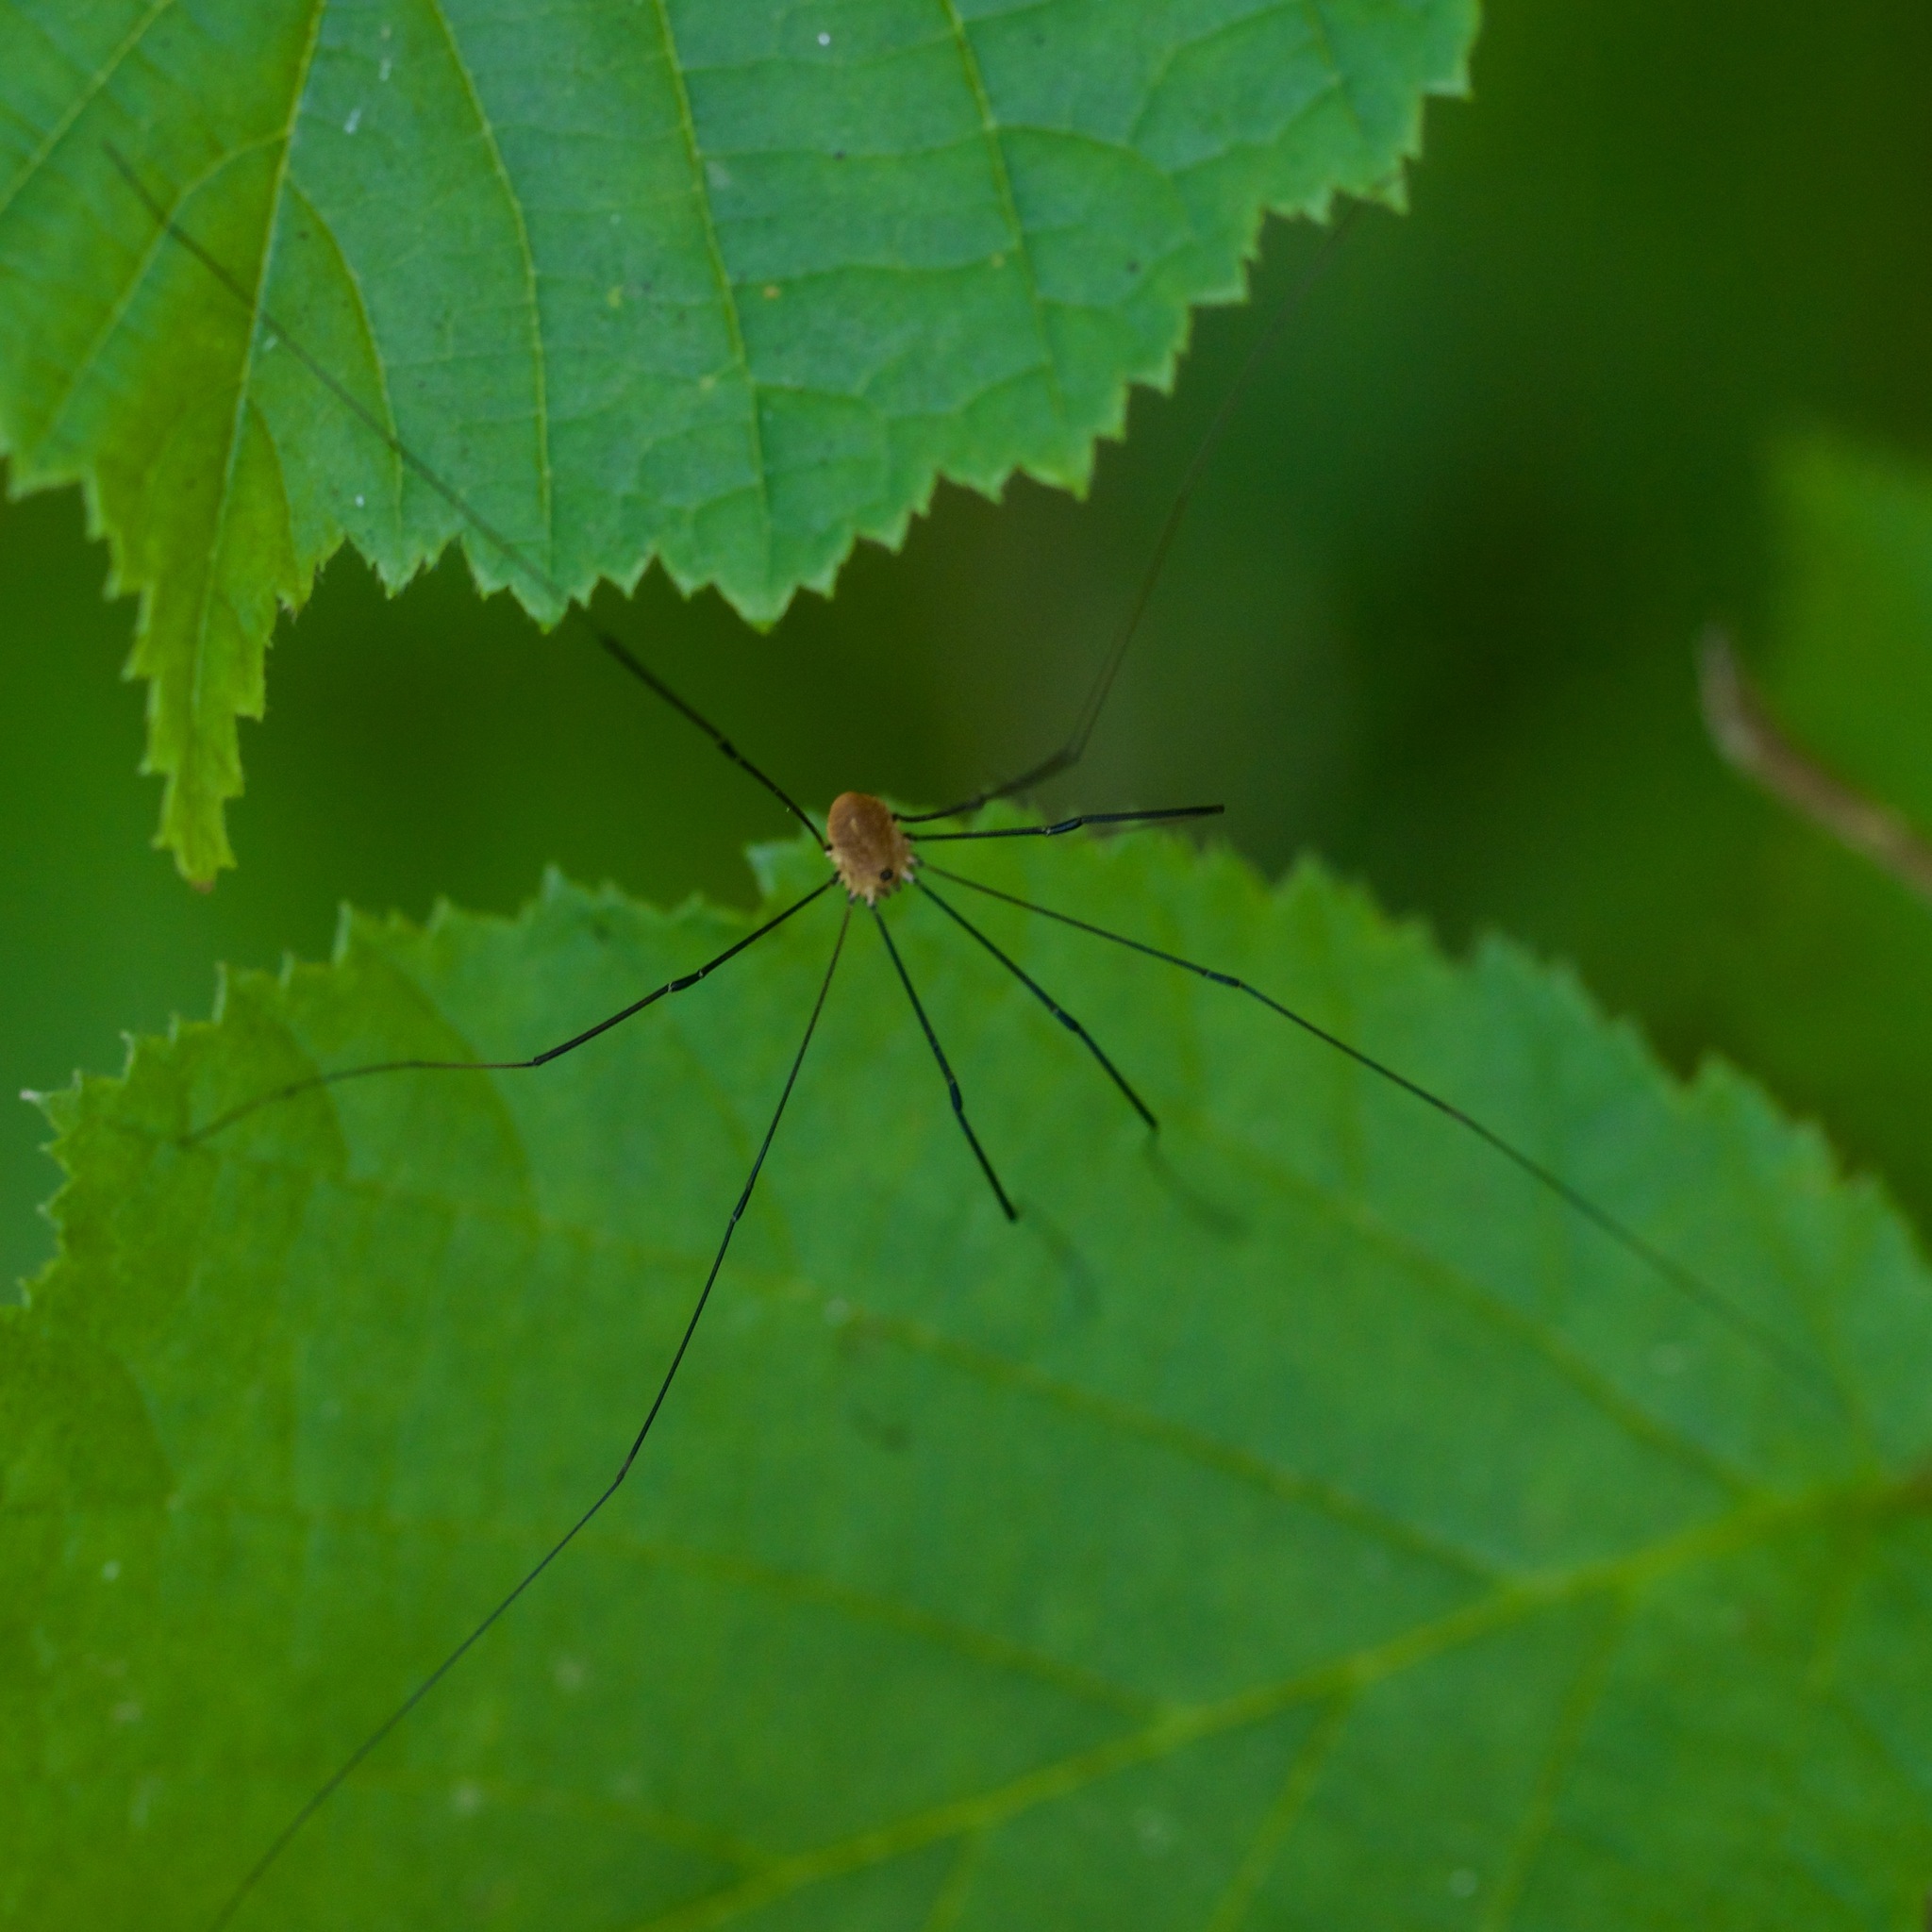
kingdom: Animalia
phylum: Arthropoda
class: Arachnida
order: Opiliones
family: Sclerosomatidae
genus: Leiobunum
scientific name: Leiobunum rotundum
